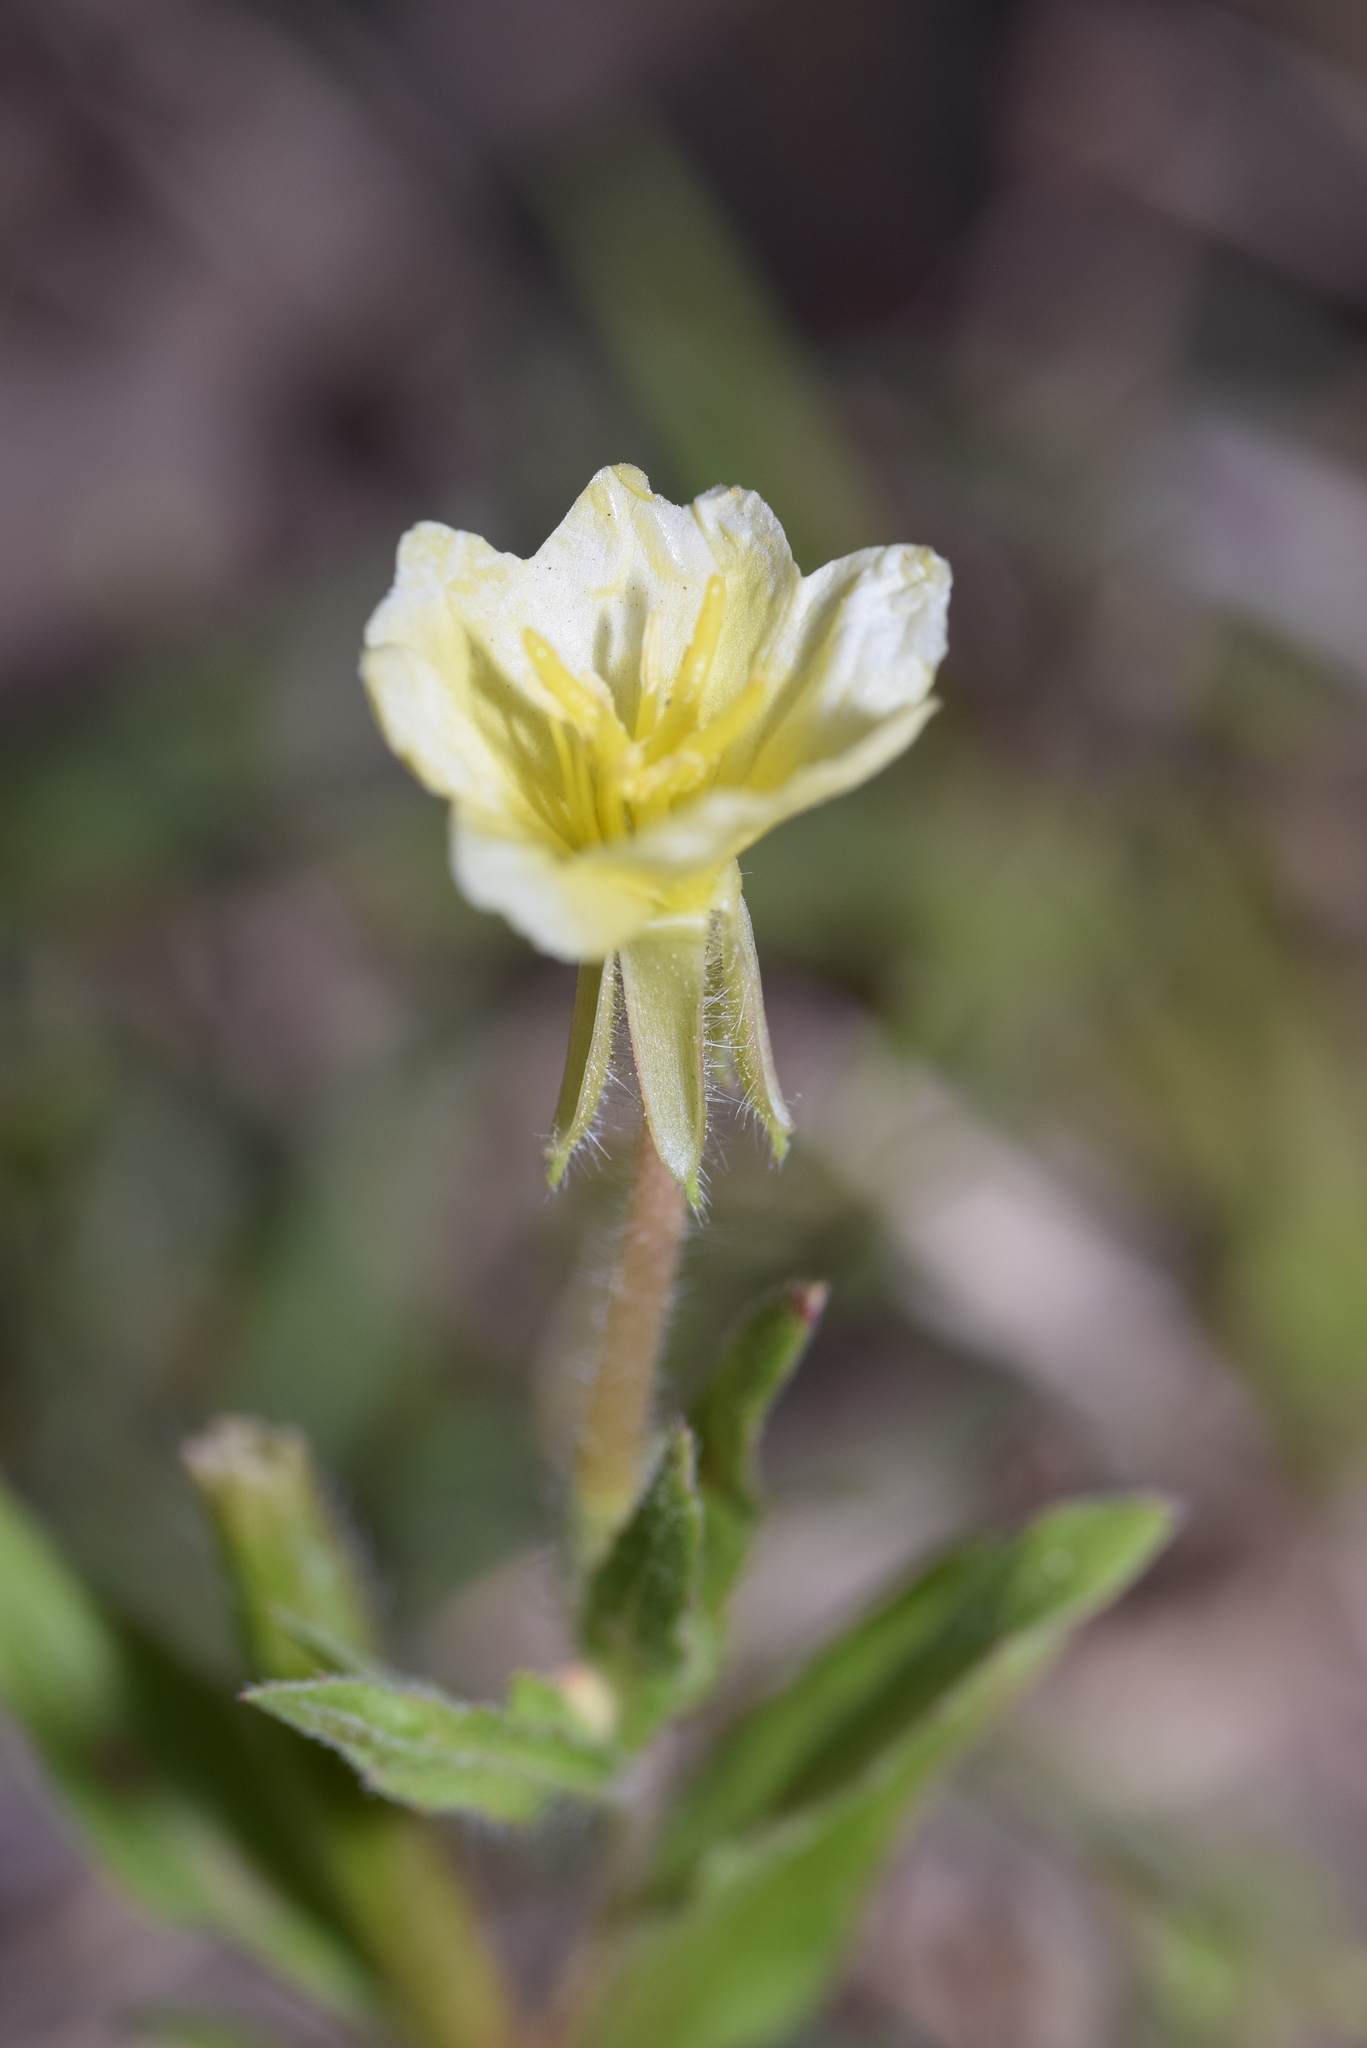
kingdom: Plantae
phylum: Tracheophyta
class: Magnoliopsida
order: Myrtales
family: Onagraceae
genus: Oenothera
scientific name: Oenothera laciniata
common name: Cut-leaved evening-primrose
